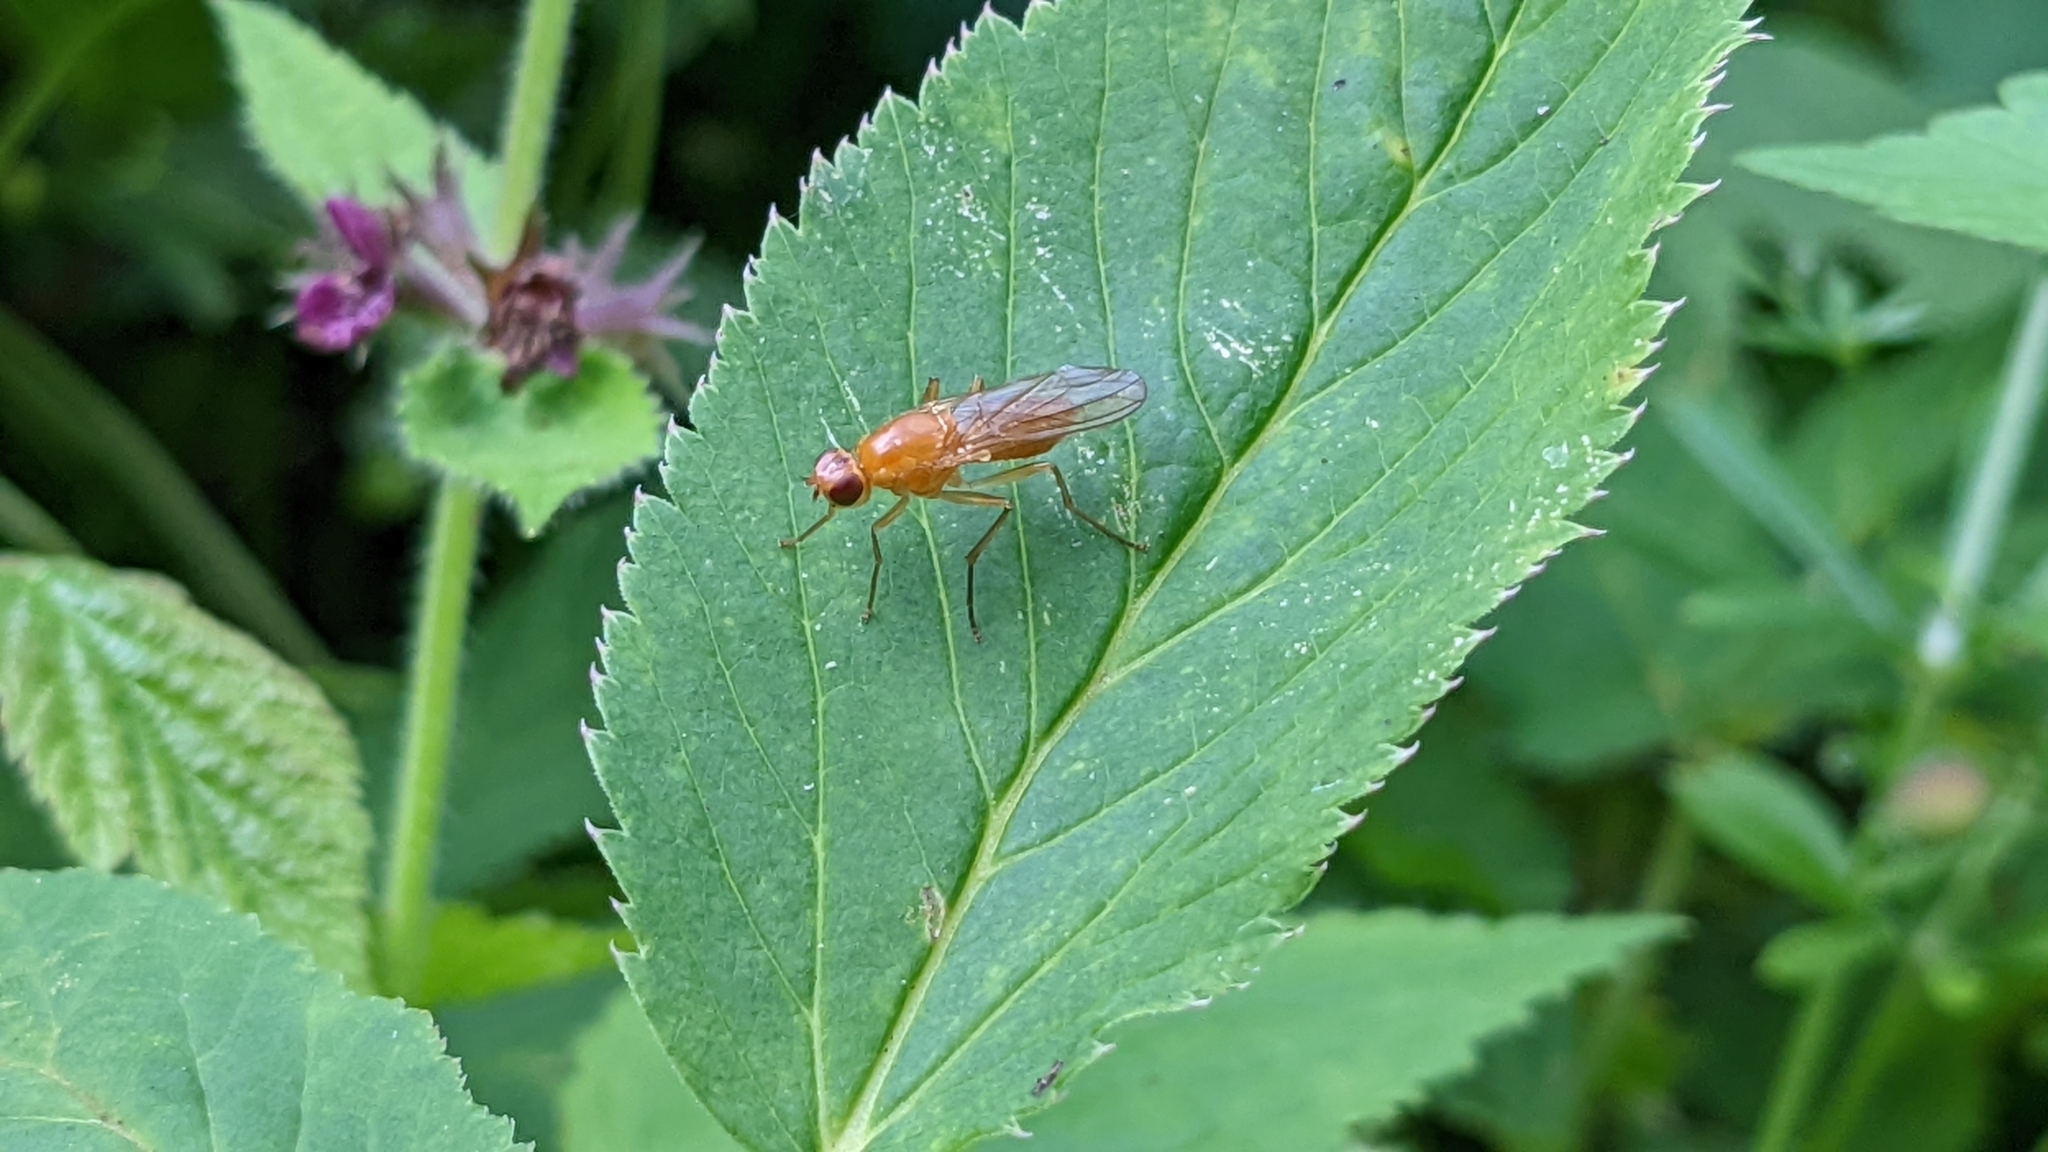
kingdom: Animalia
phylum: Arthropoda
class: Insecta
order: Diptera
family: Psilidae
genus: Psila
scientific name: Psila fimetaria
